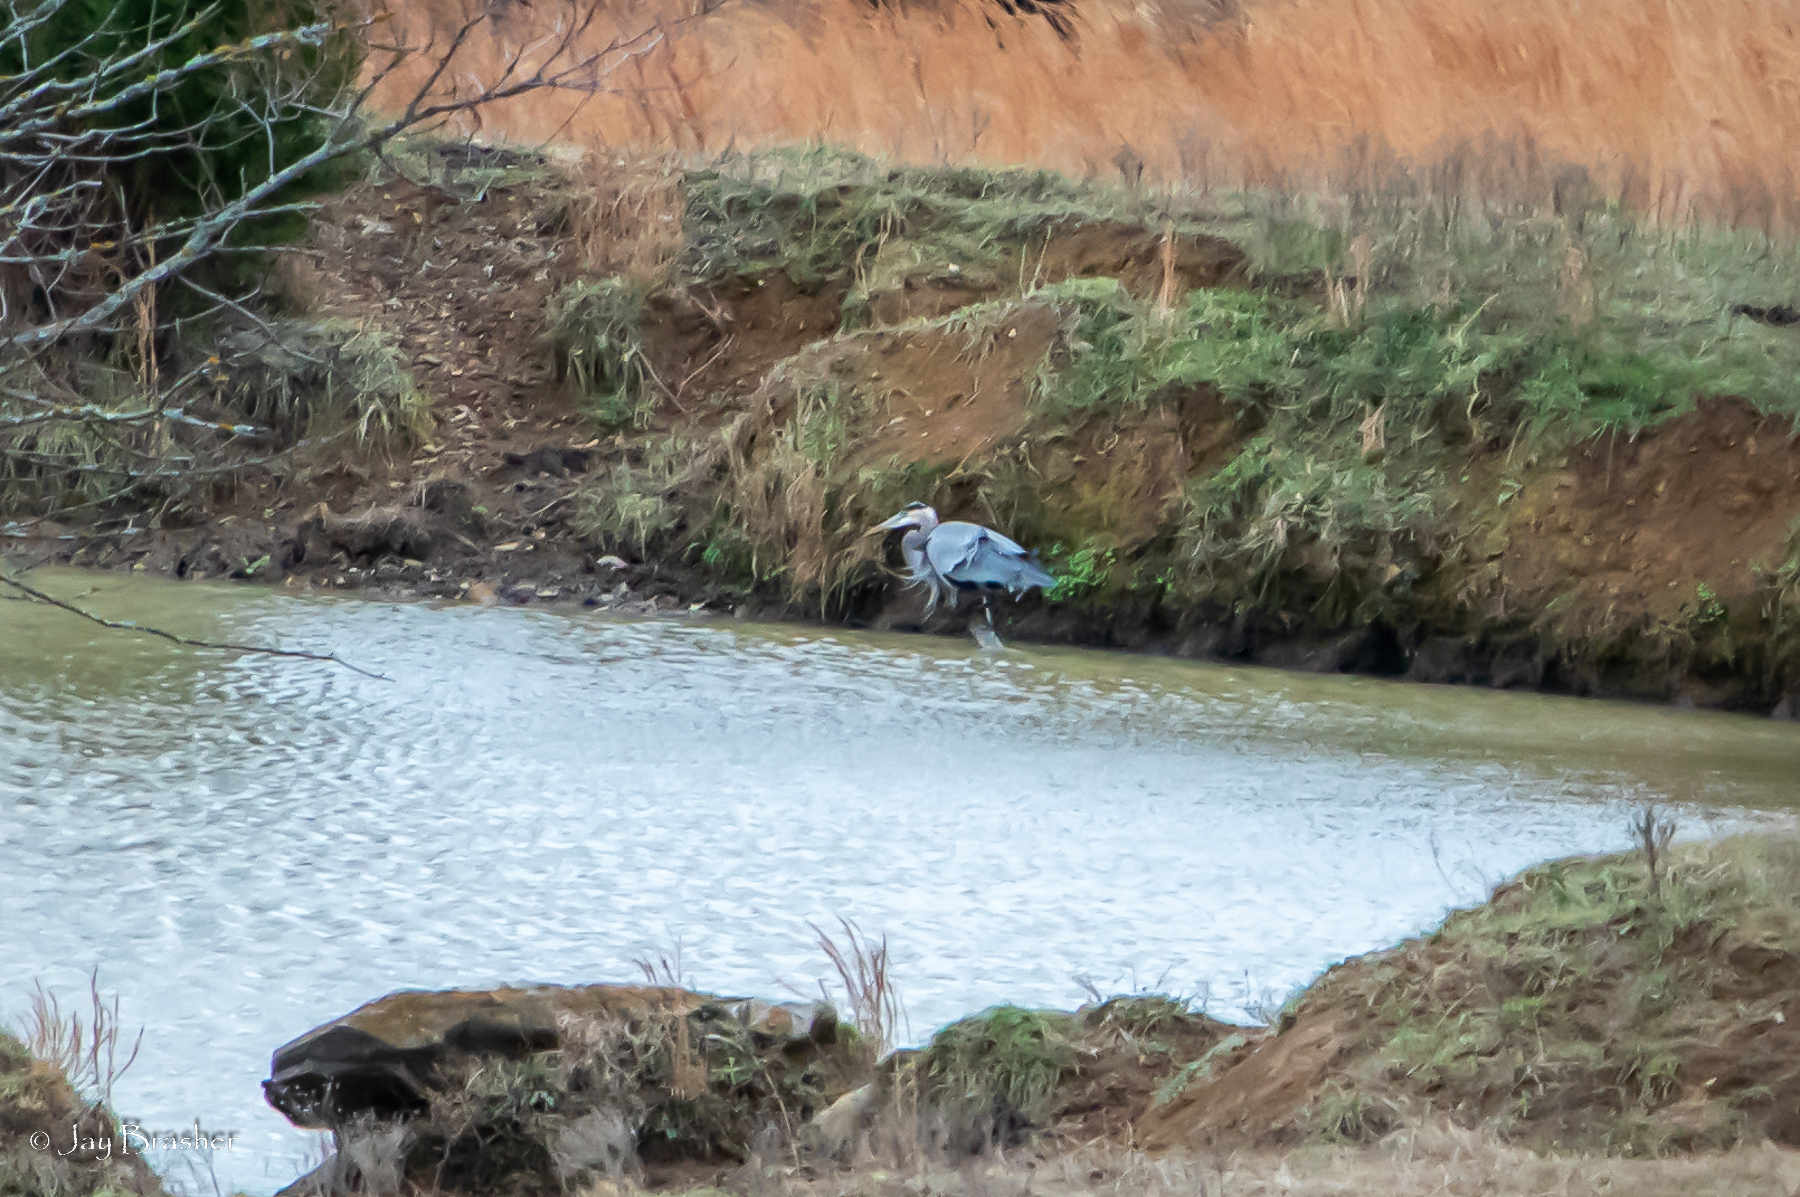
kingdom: Animalia
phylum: Chordata
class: Aves
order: Pelecaniformes
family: Ardeidae
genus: Ardea
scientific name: Ardea herodias
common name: Great blue heron
